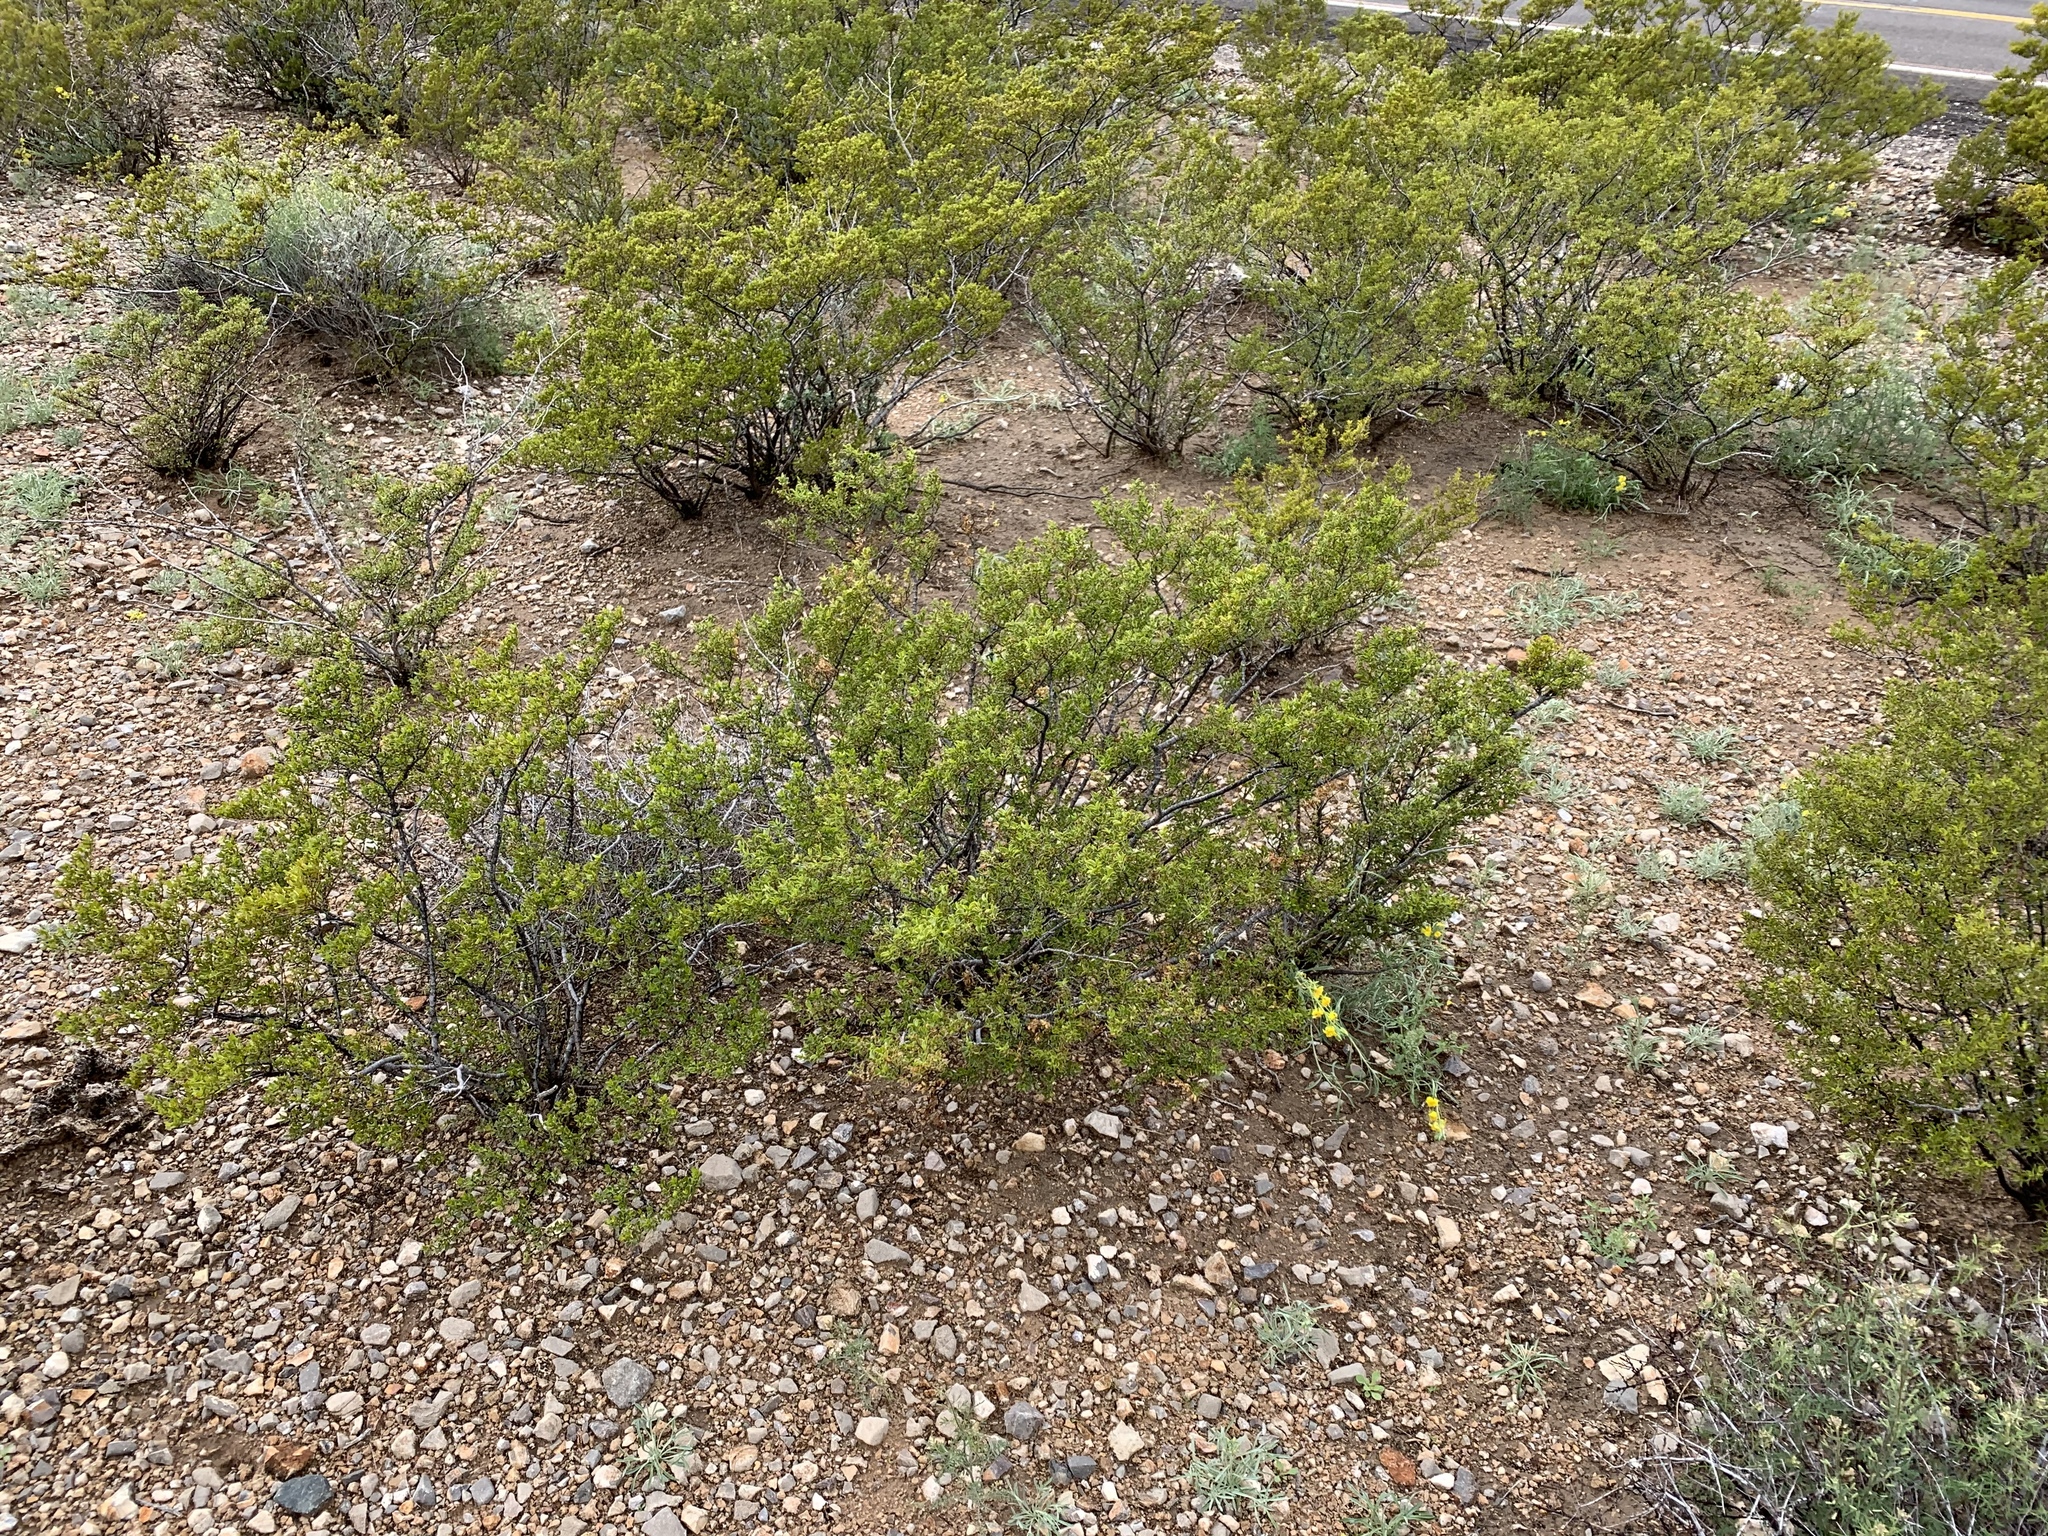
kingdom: Plantae
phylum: Tracheophyta
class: Magnoliopsida
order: Zygophyllales
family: Zygophyllaceae
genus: Larrea
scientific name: Larrea tridentata
